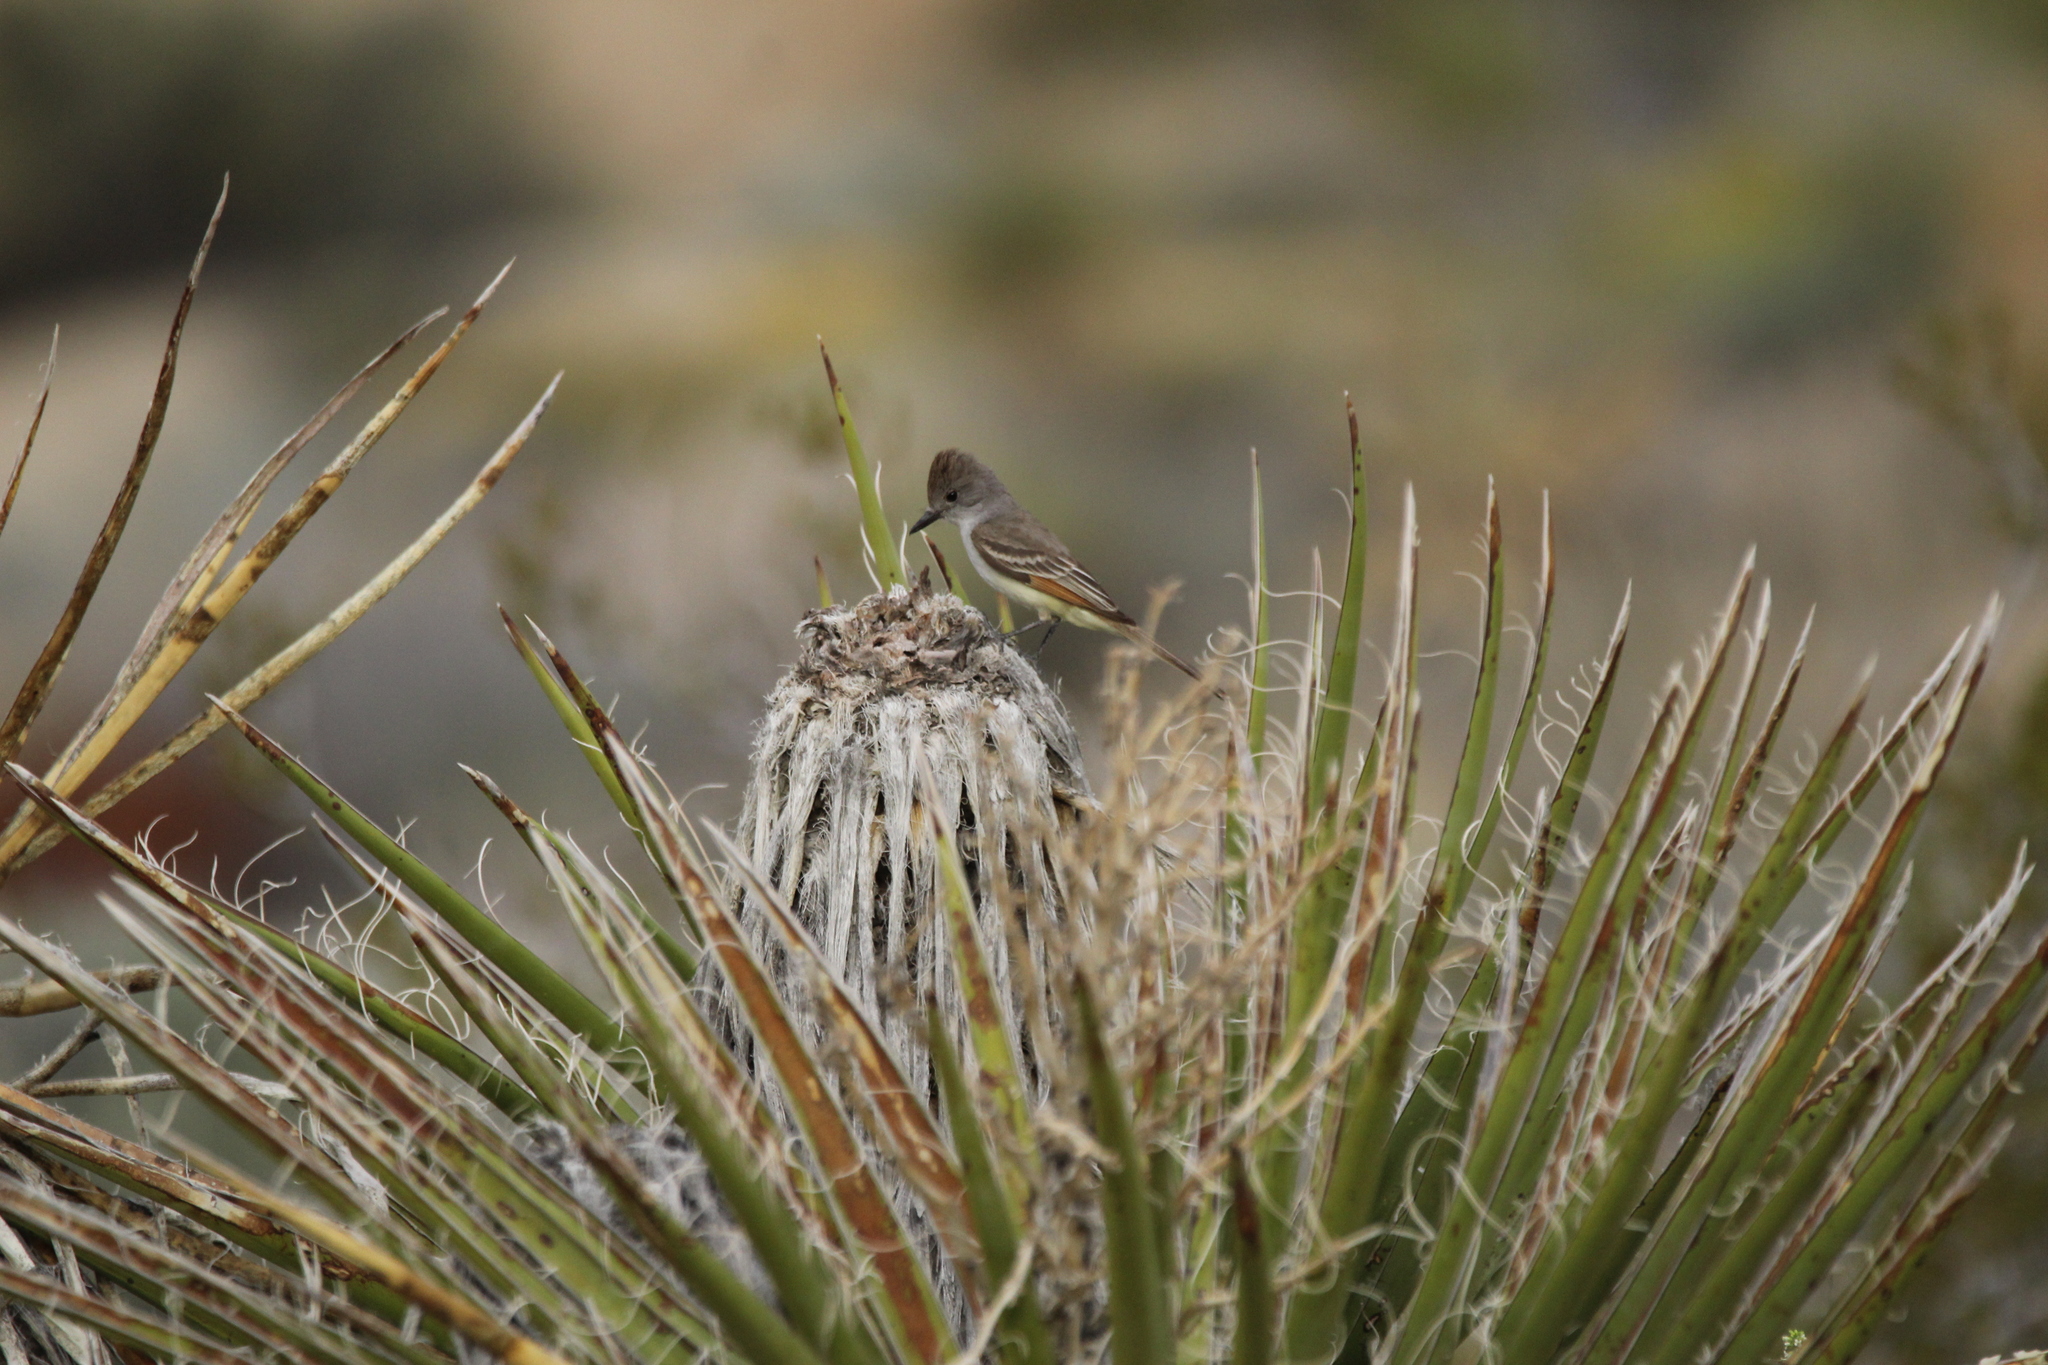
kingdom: Animalia
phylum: Chordata
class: Aves
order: Passeriformes
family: Tyrannidae
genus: Myiarchus
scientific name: Myiarchus cinerascens
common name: Ash-throated flycatcher
